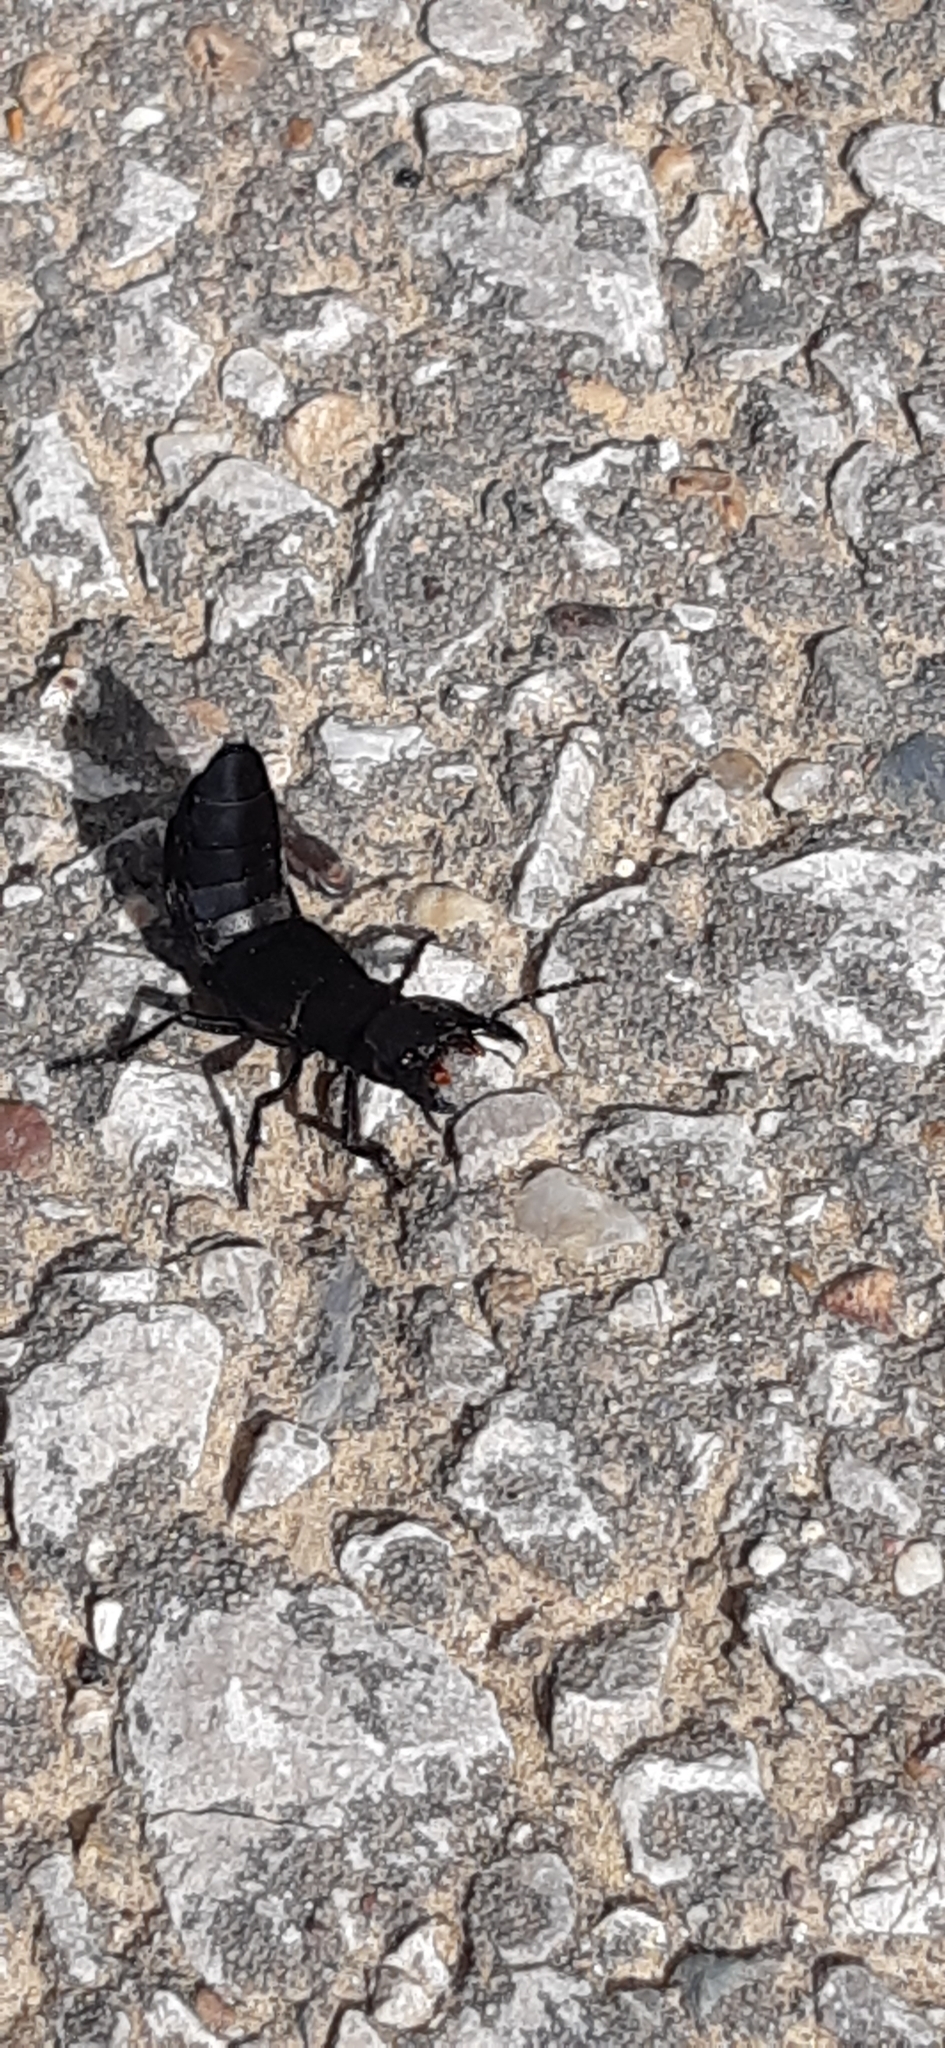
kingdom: Animalia
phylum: Arthropoda
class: Insecta
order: Coleoptera
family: Staphylinidae
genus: Ocypus
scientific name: Ocypus olens
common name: Devil's coach-horse
